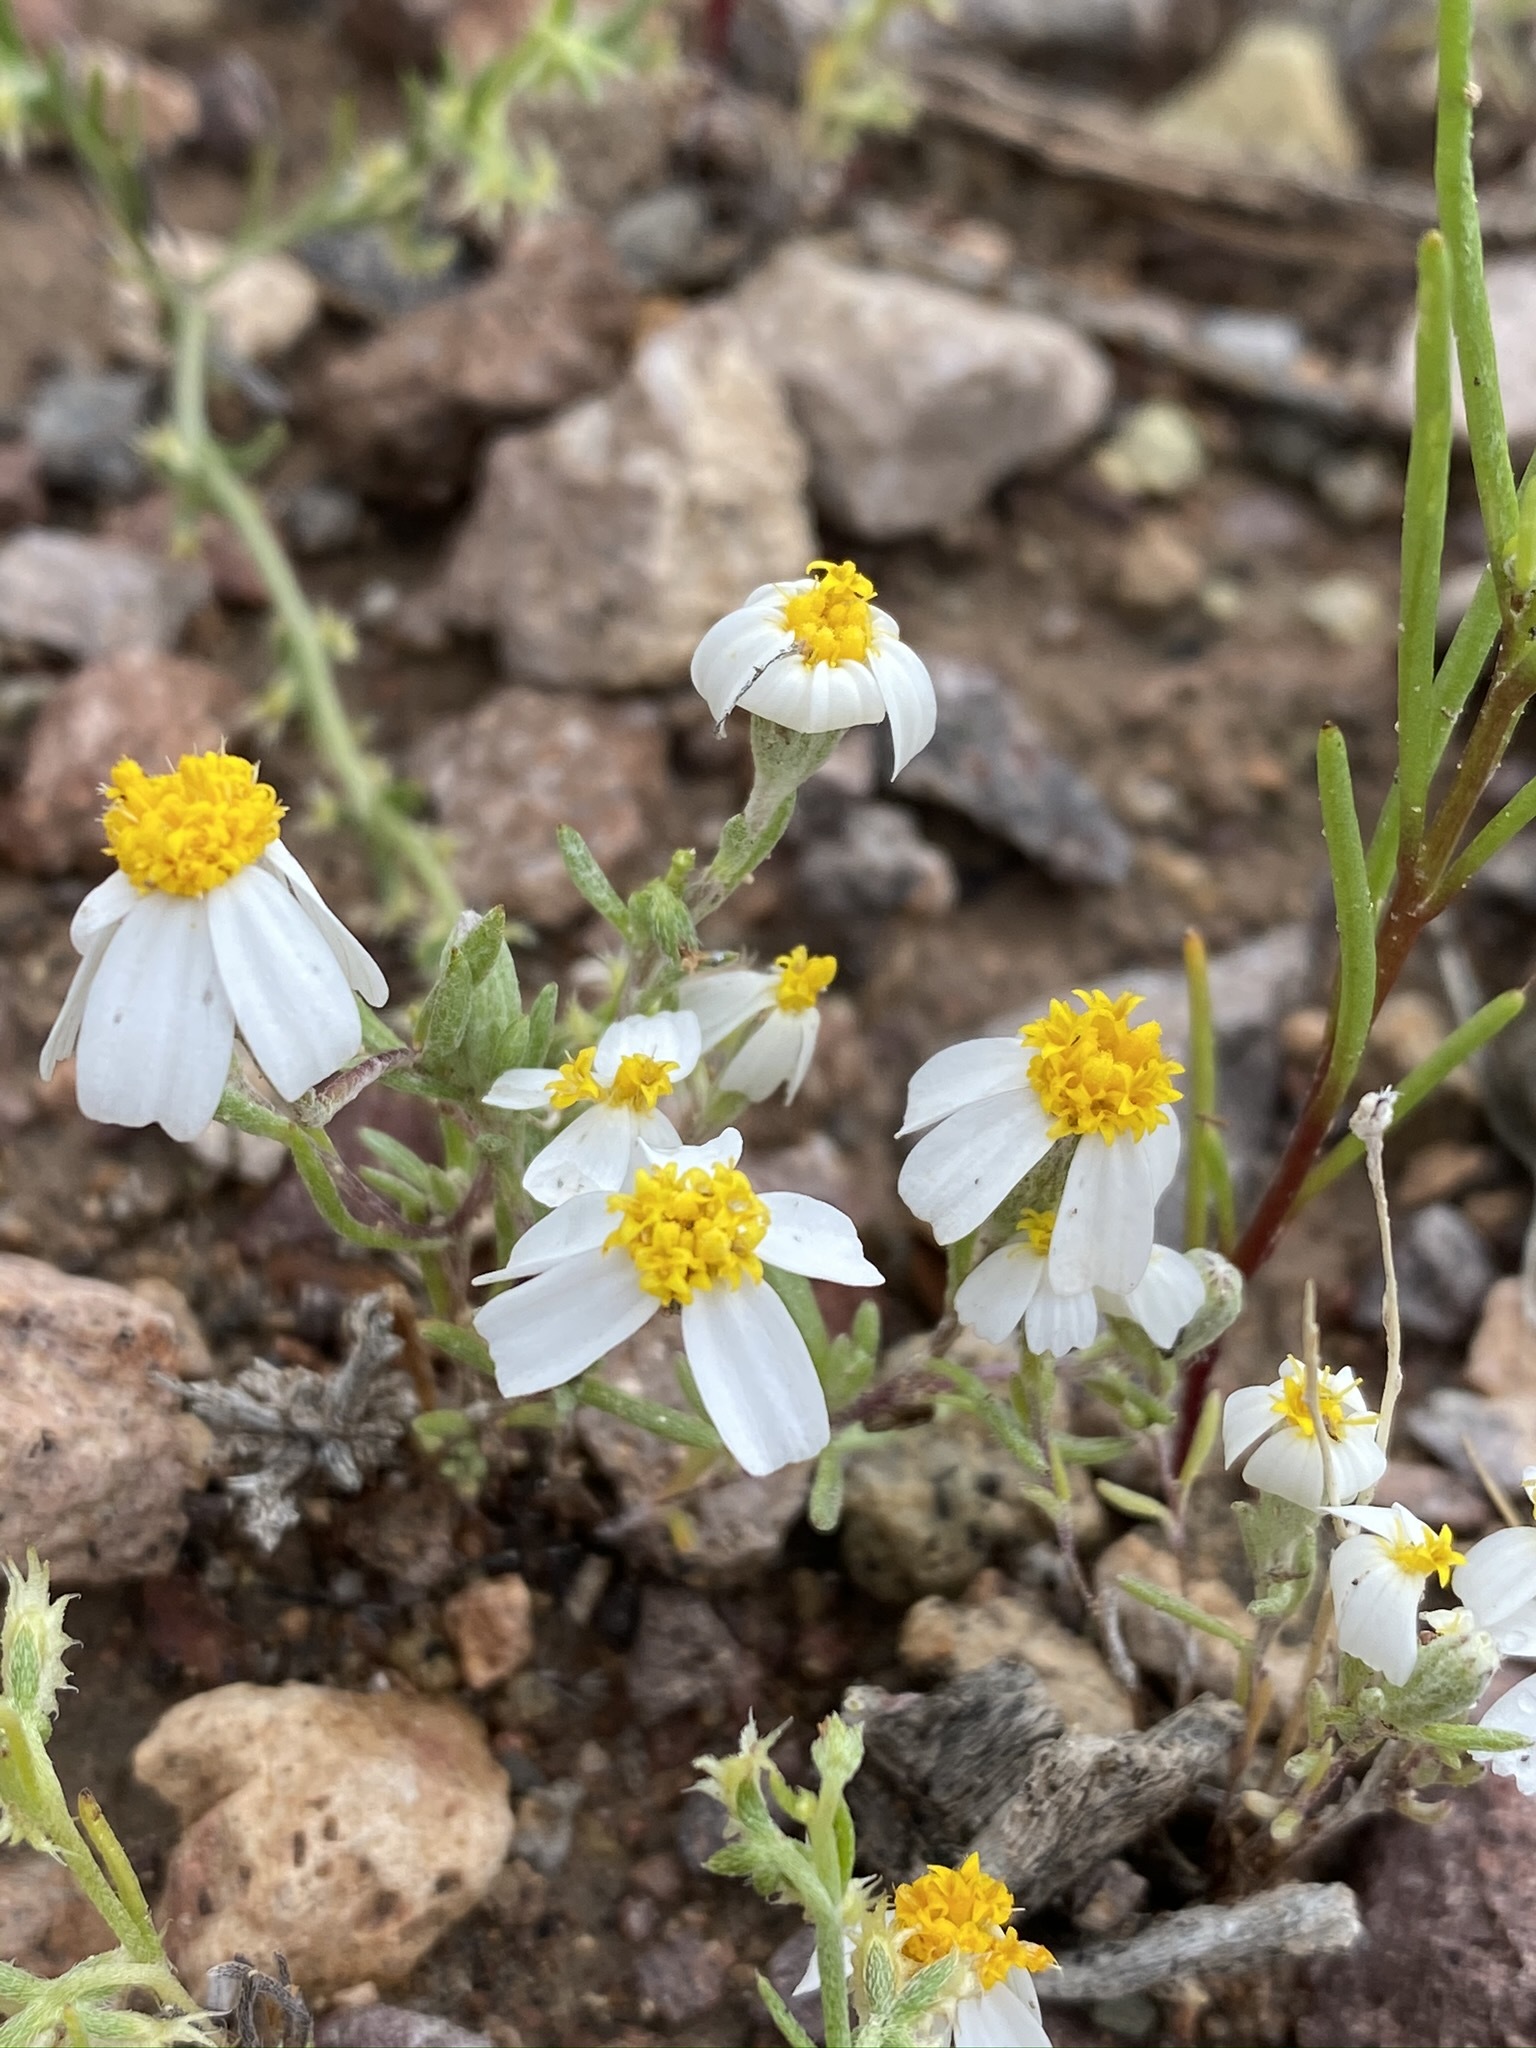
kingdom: Plantae
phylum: Tracheophyta
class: Magnoliopsida
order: Asterales
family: Asteraceae
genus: Eriophyllum
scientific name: Eriophyllum lanosum
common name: White easter-bonnets
